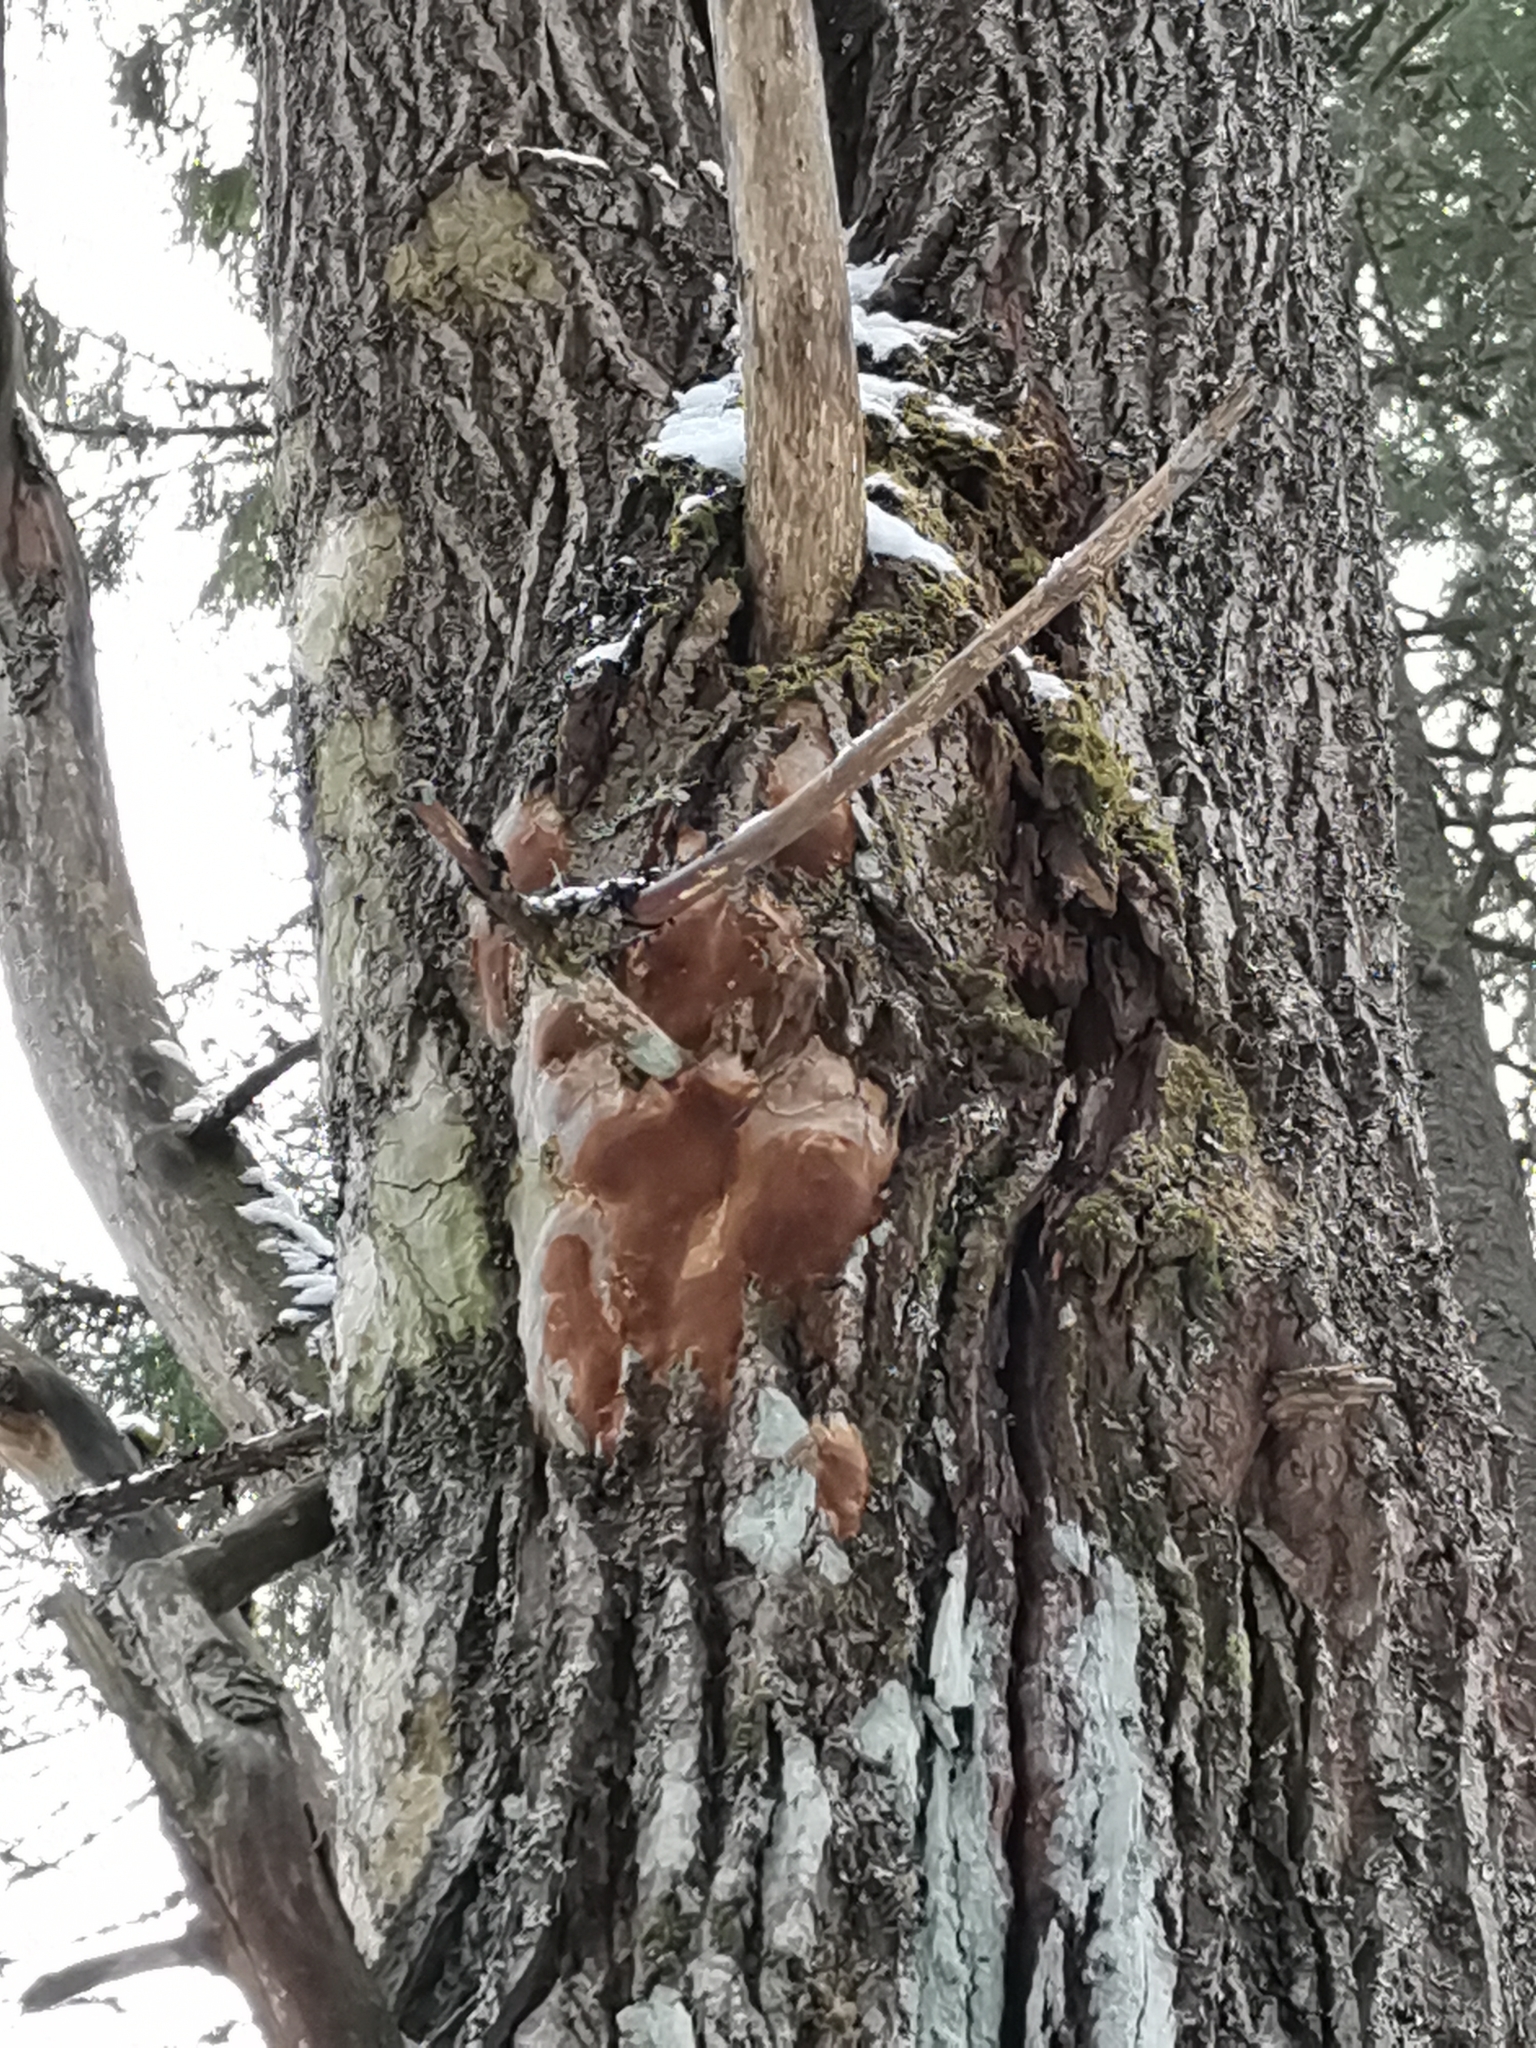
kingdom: Fungi
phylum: Basidiomycota
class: Agaricomycetes
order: Hymenochaetales
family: Hymenochaetaceae
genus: Phellinopsis
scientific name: Phellinopsis conchata
